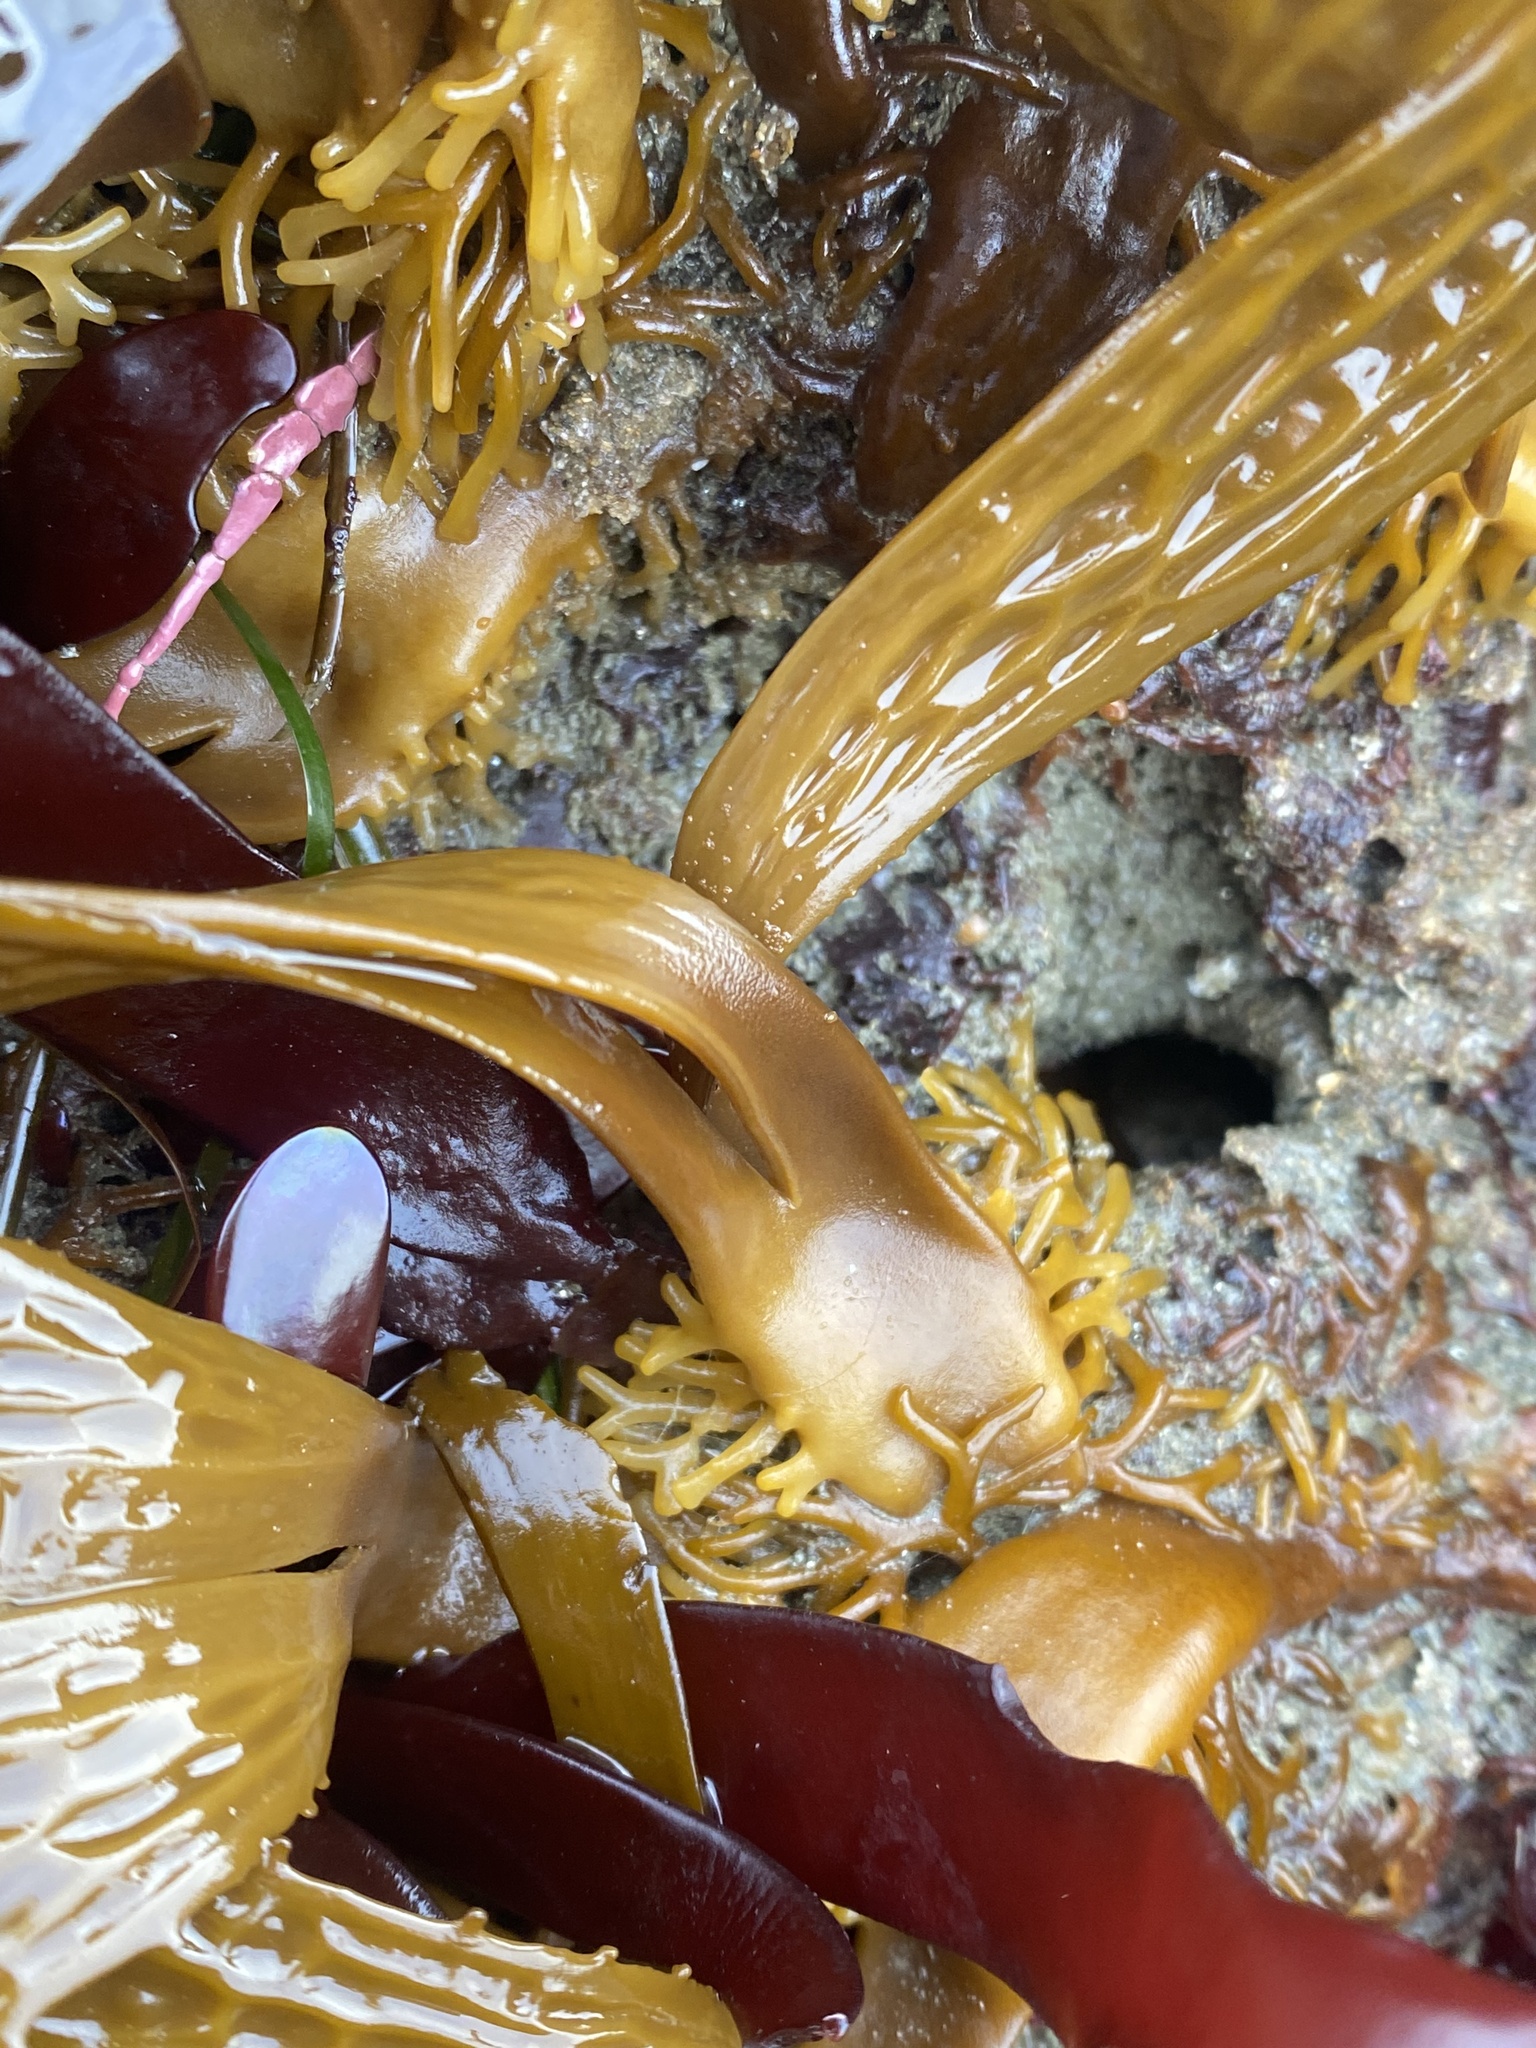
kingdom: Chromista
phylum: Ochrophyta
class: Phaeophyceae
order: Laminariales
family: Costariaceae
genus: Dictyoneurum
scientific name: Dictyoneurum californicum
